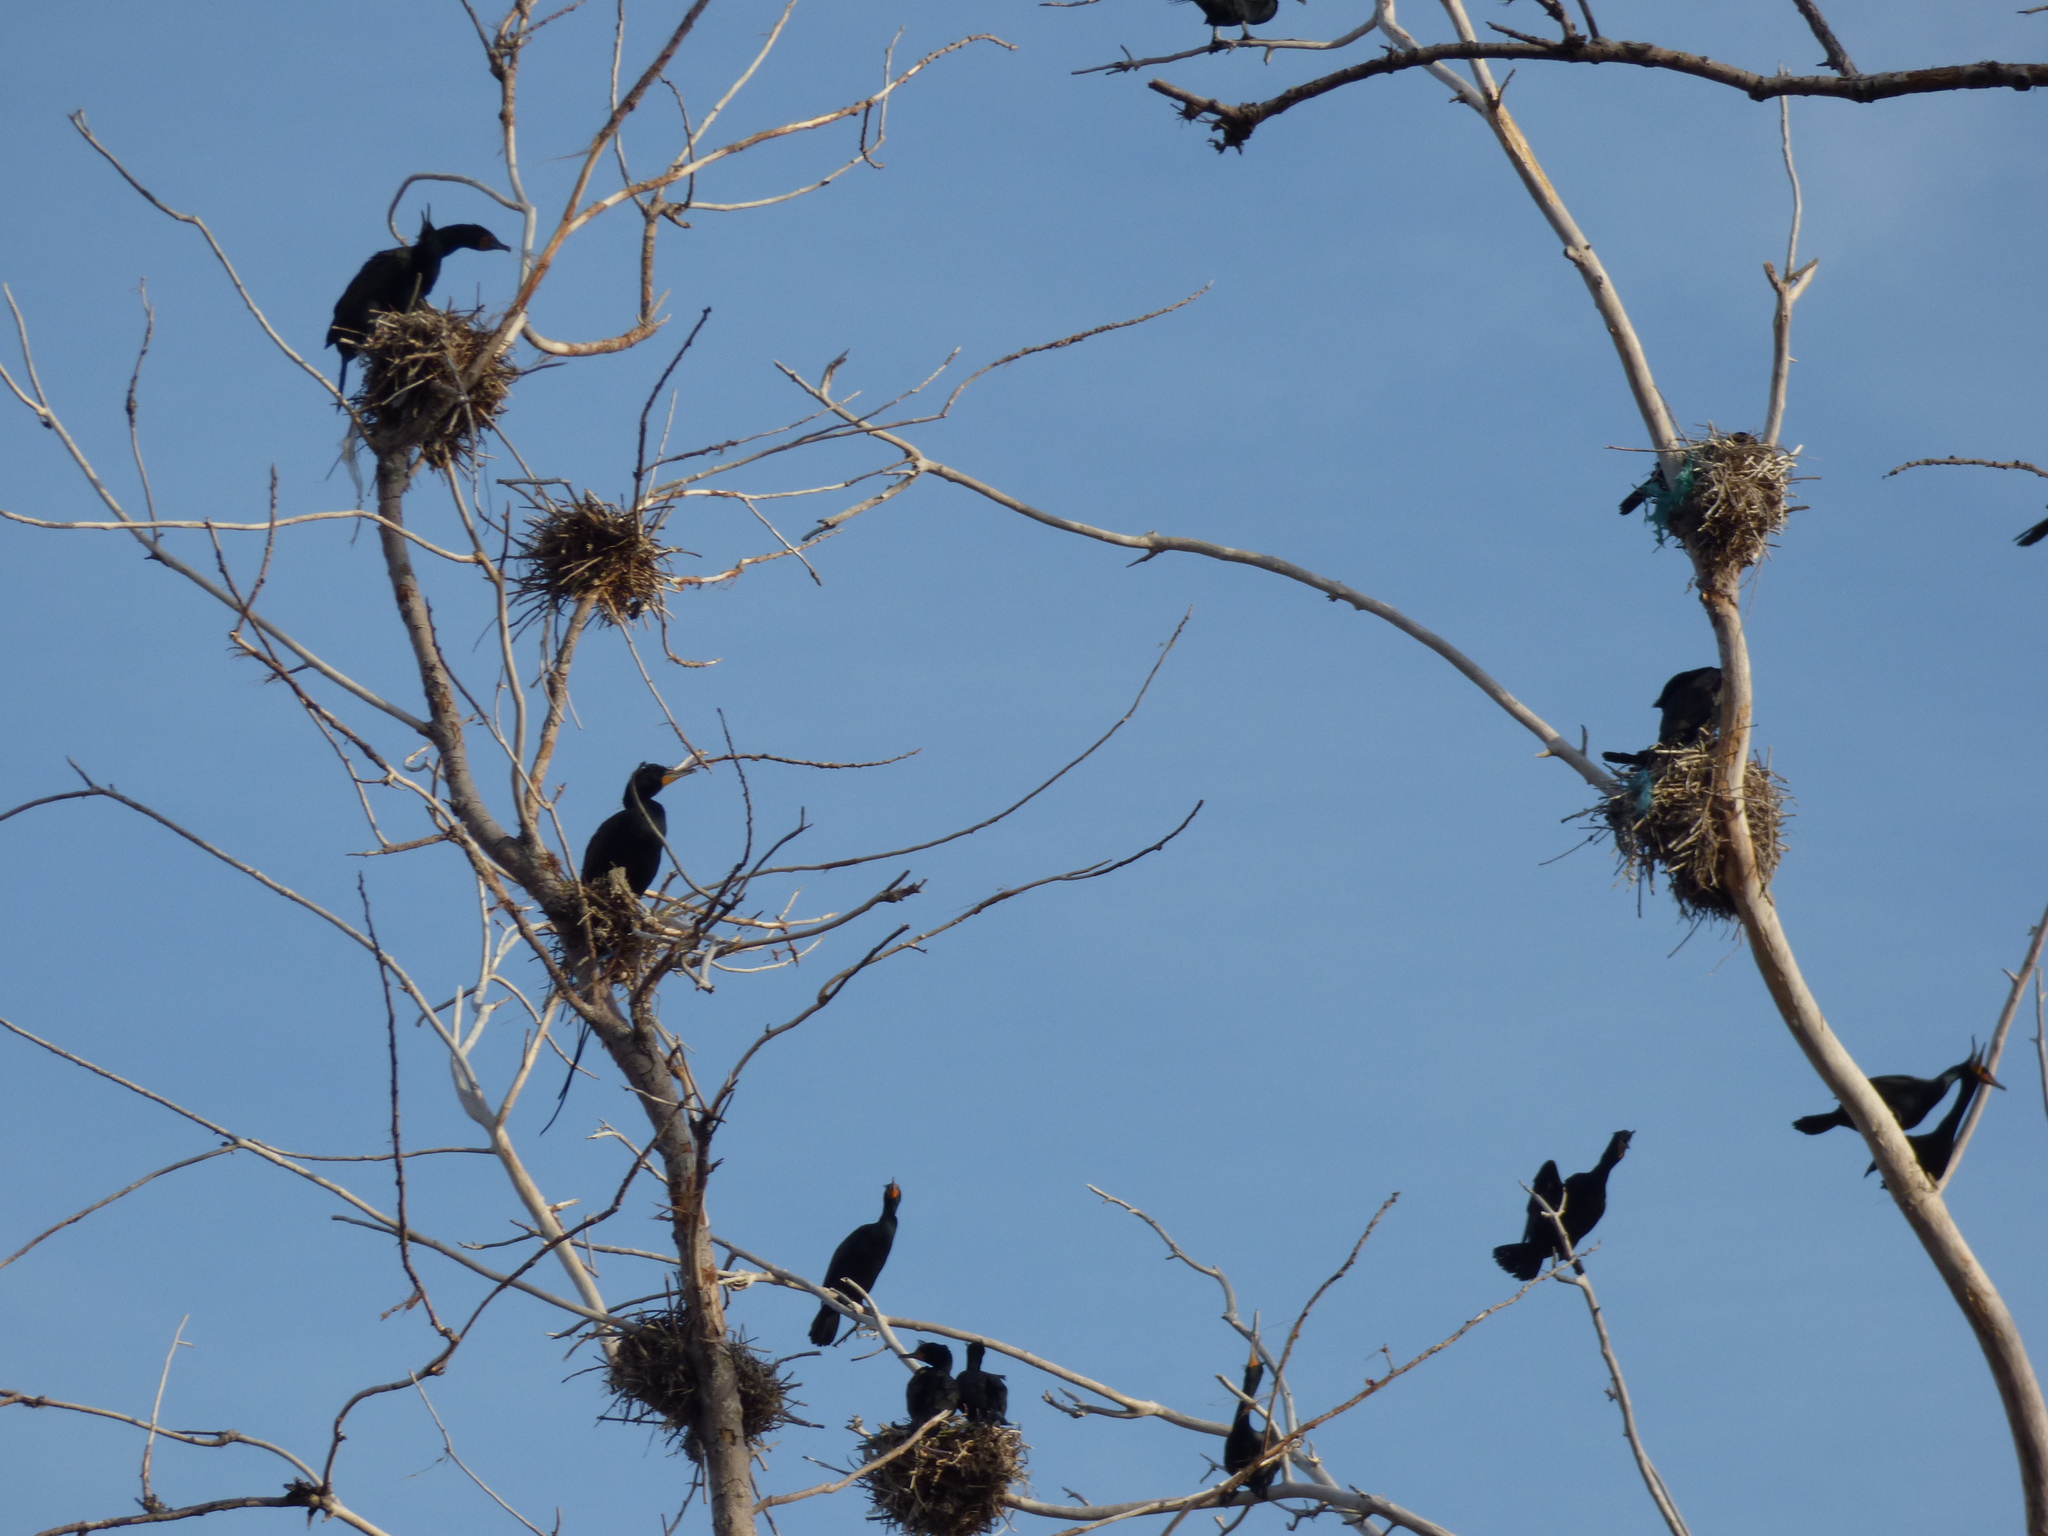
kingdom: Animalia
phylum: Chordata
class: Aves
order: Suliformes
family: Phalacrocoracidae
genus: Phalacrocorax
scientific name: Phalacrocorax auritus
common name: Double-crested cormorant
